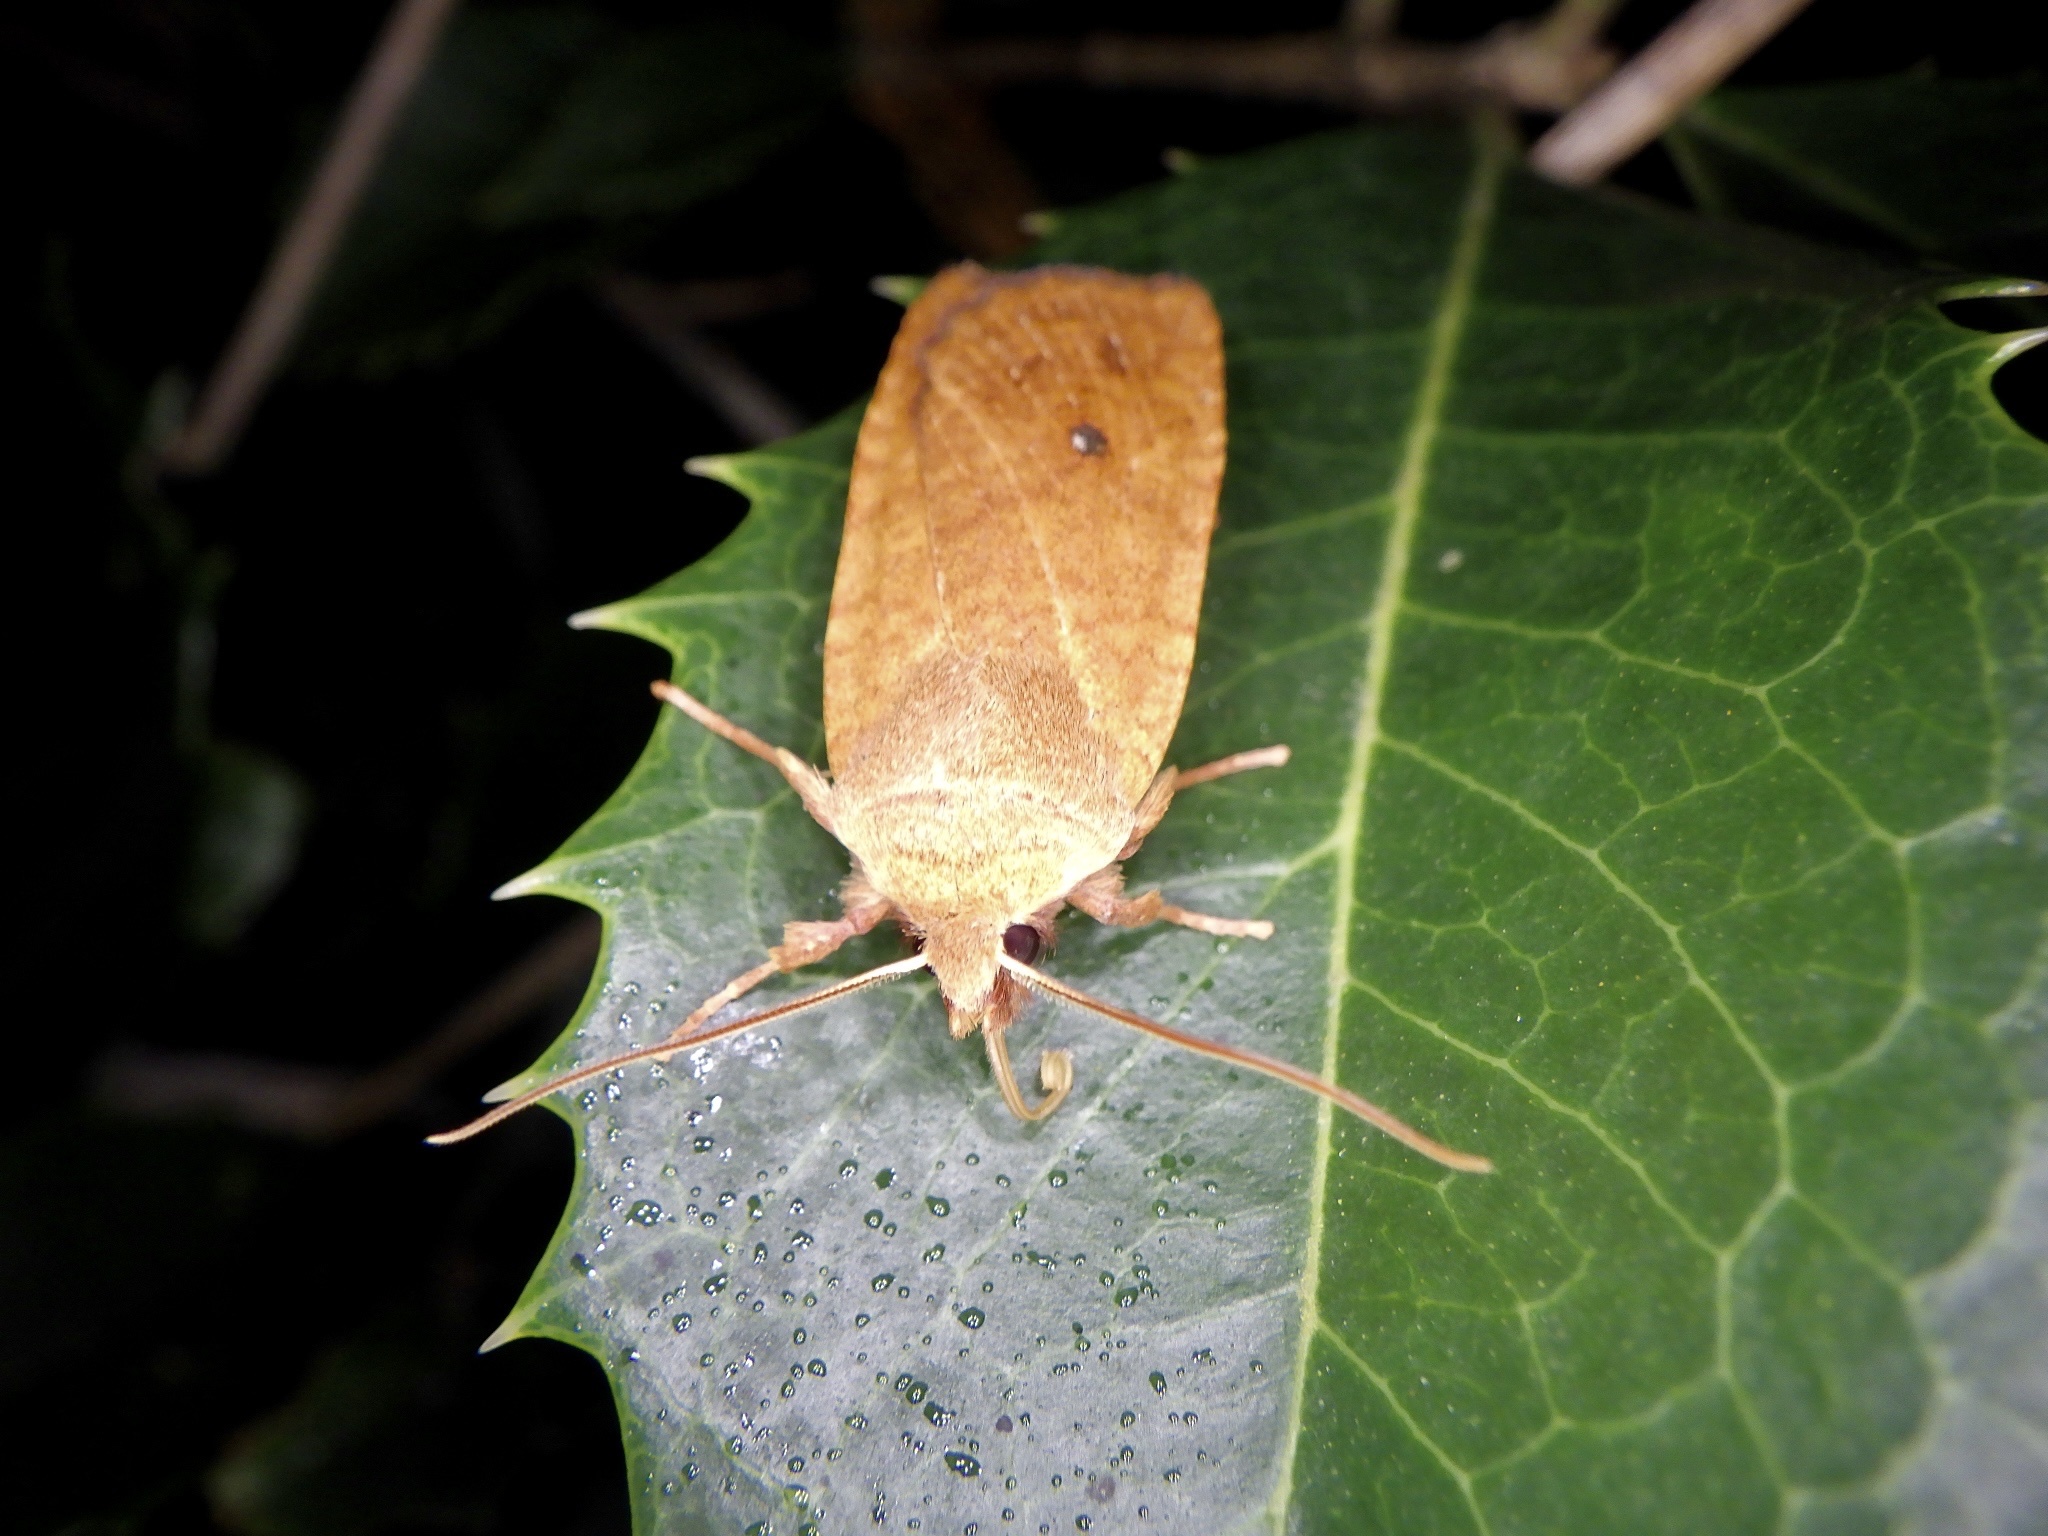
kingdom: Animalia
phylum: Arthropoda
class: Insecta
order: Lepidoptera
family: Noctuidae
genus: Conistra
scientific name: Conistra albipuncta
